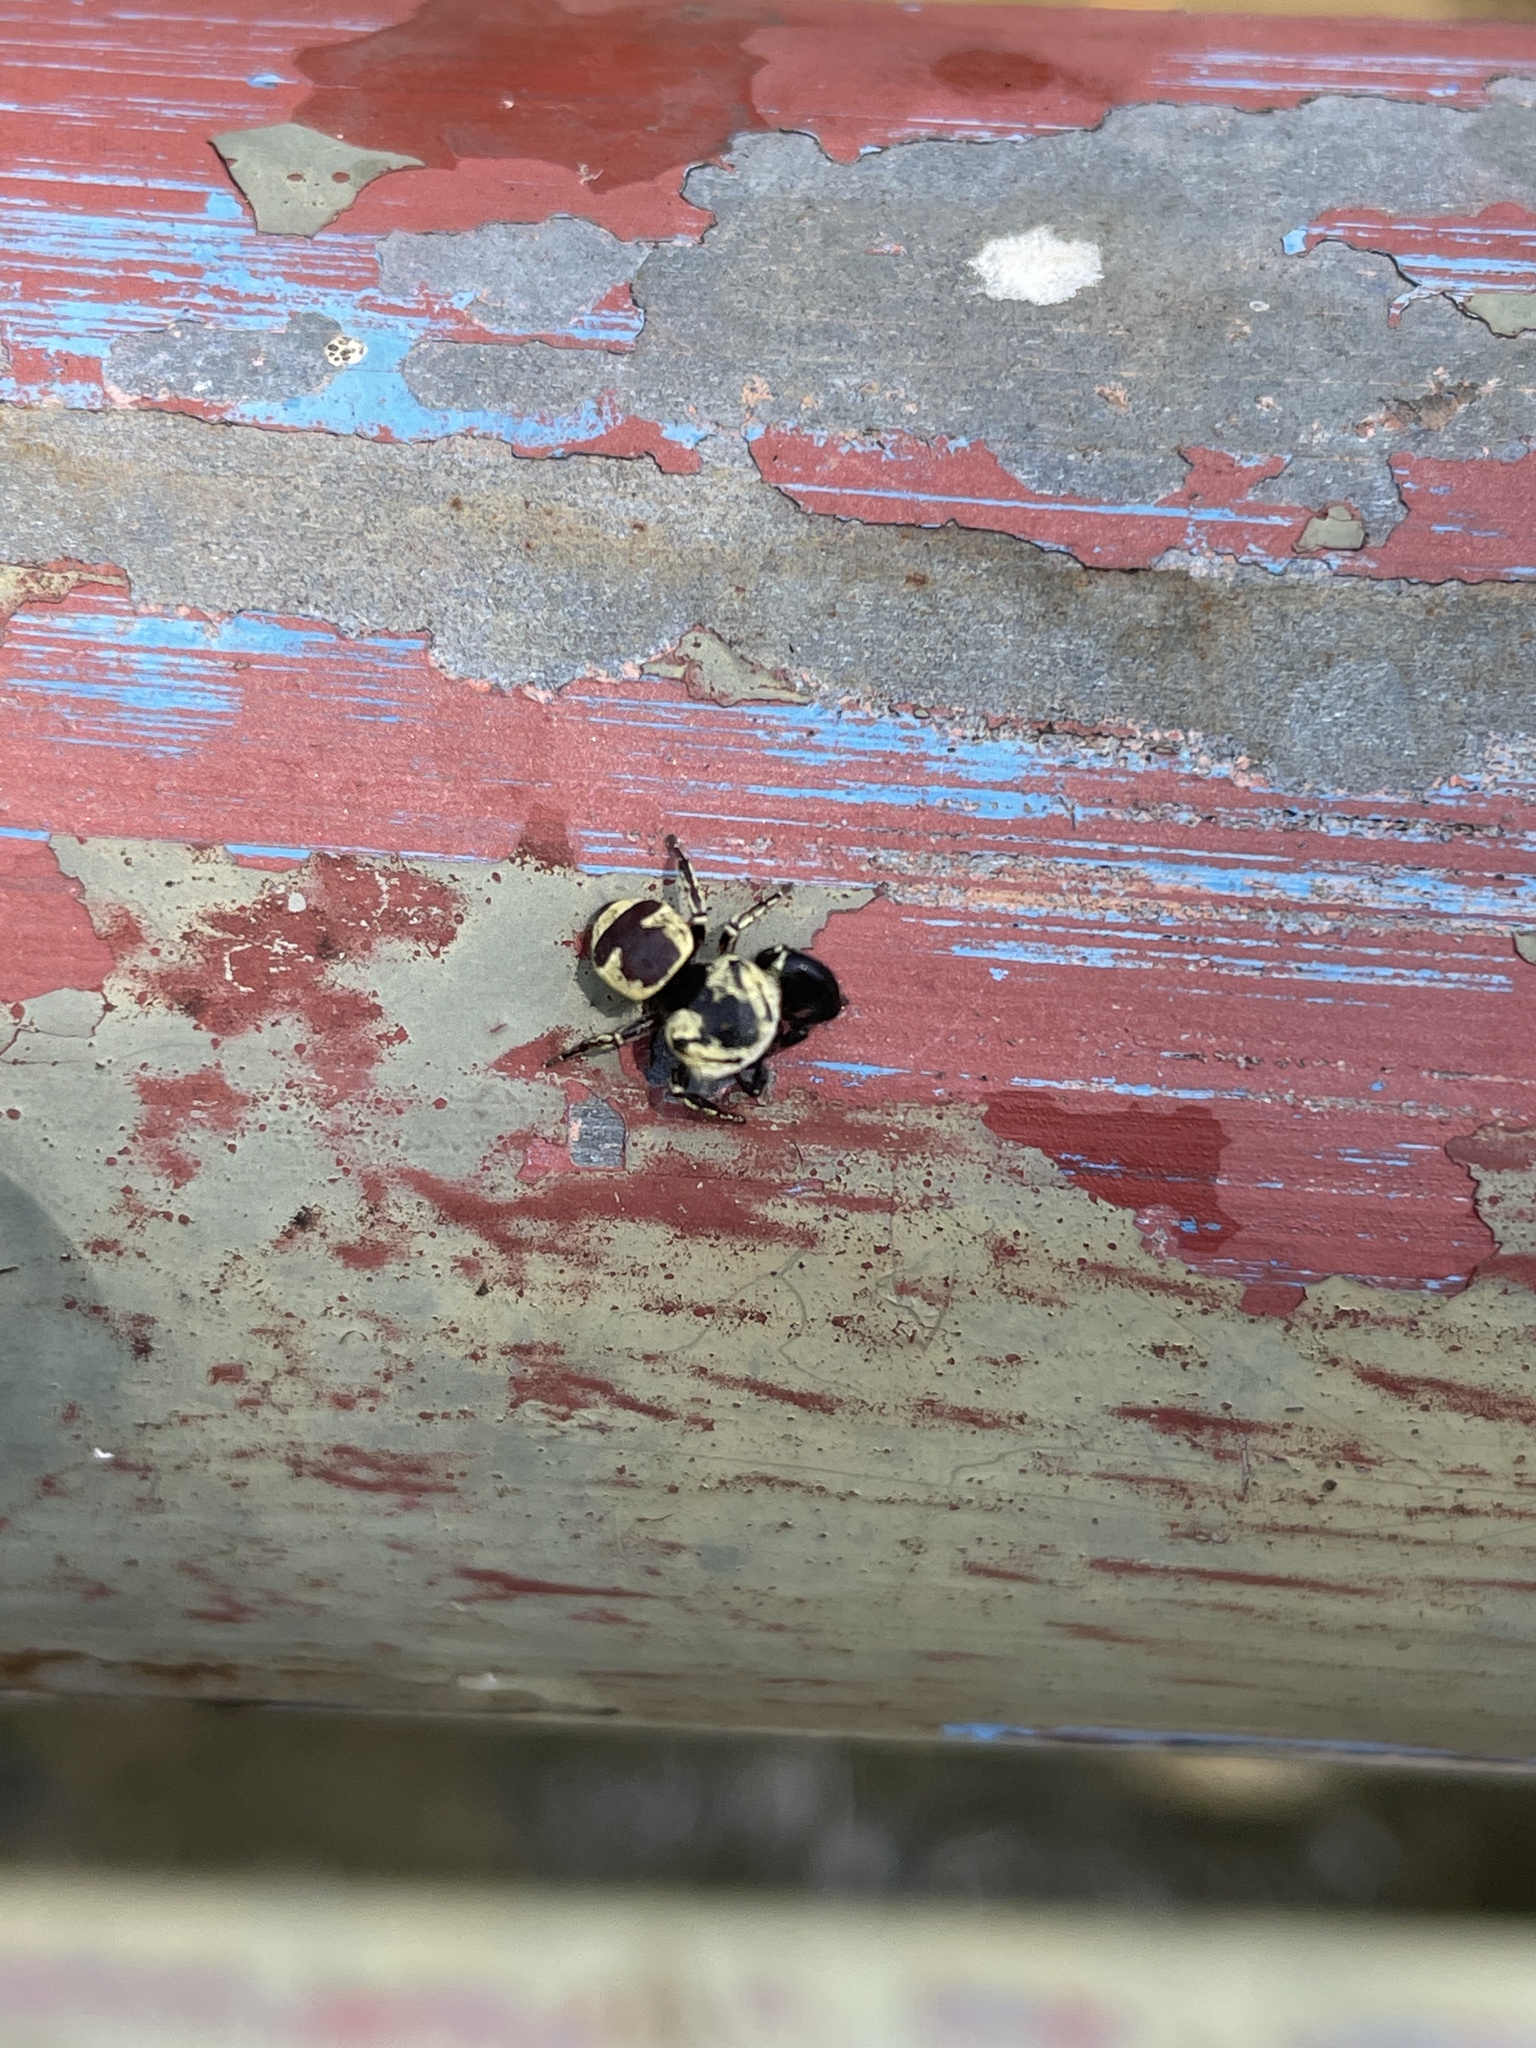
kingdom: Animalia
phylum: Arthropoda
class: Arachnida
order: Araneae
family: Salticidae
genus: Rhene
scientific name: Rhene flavicomans
